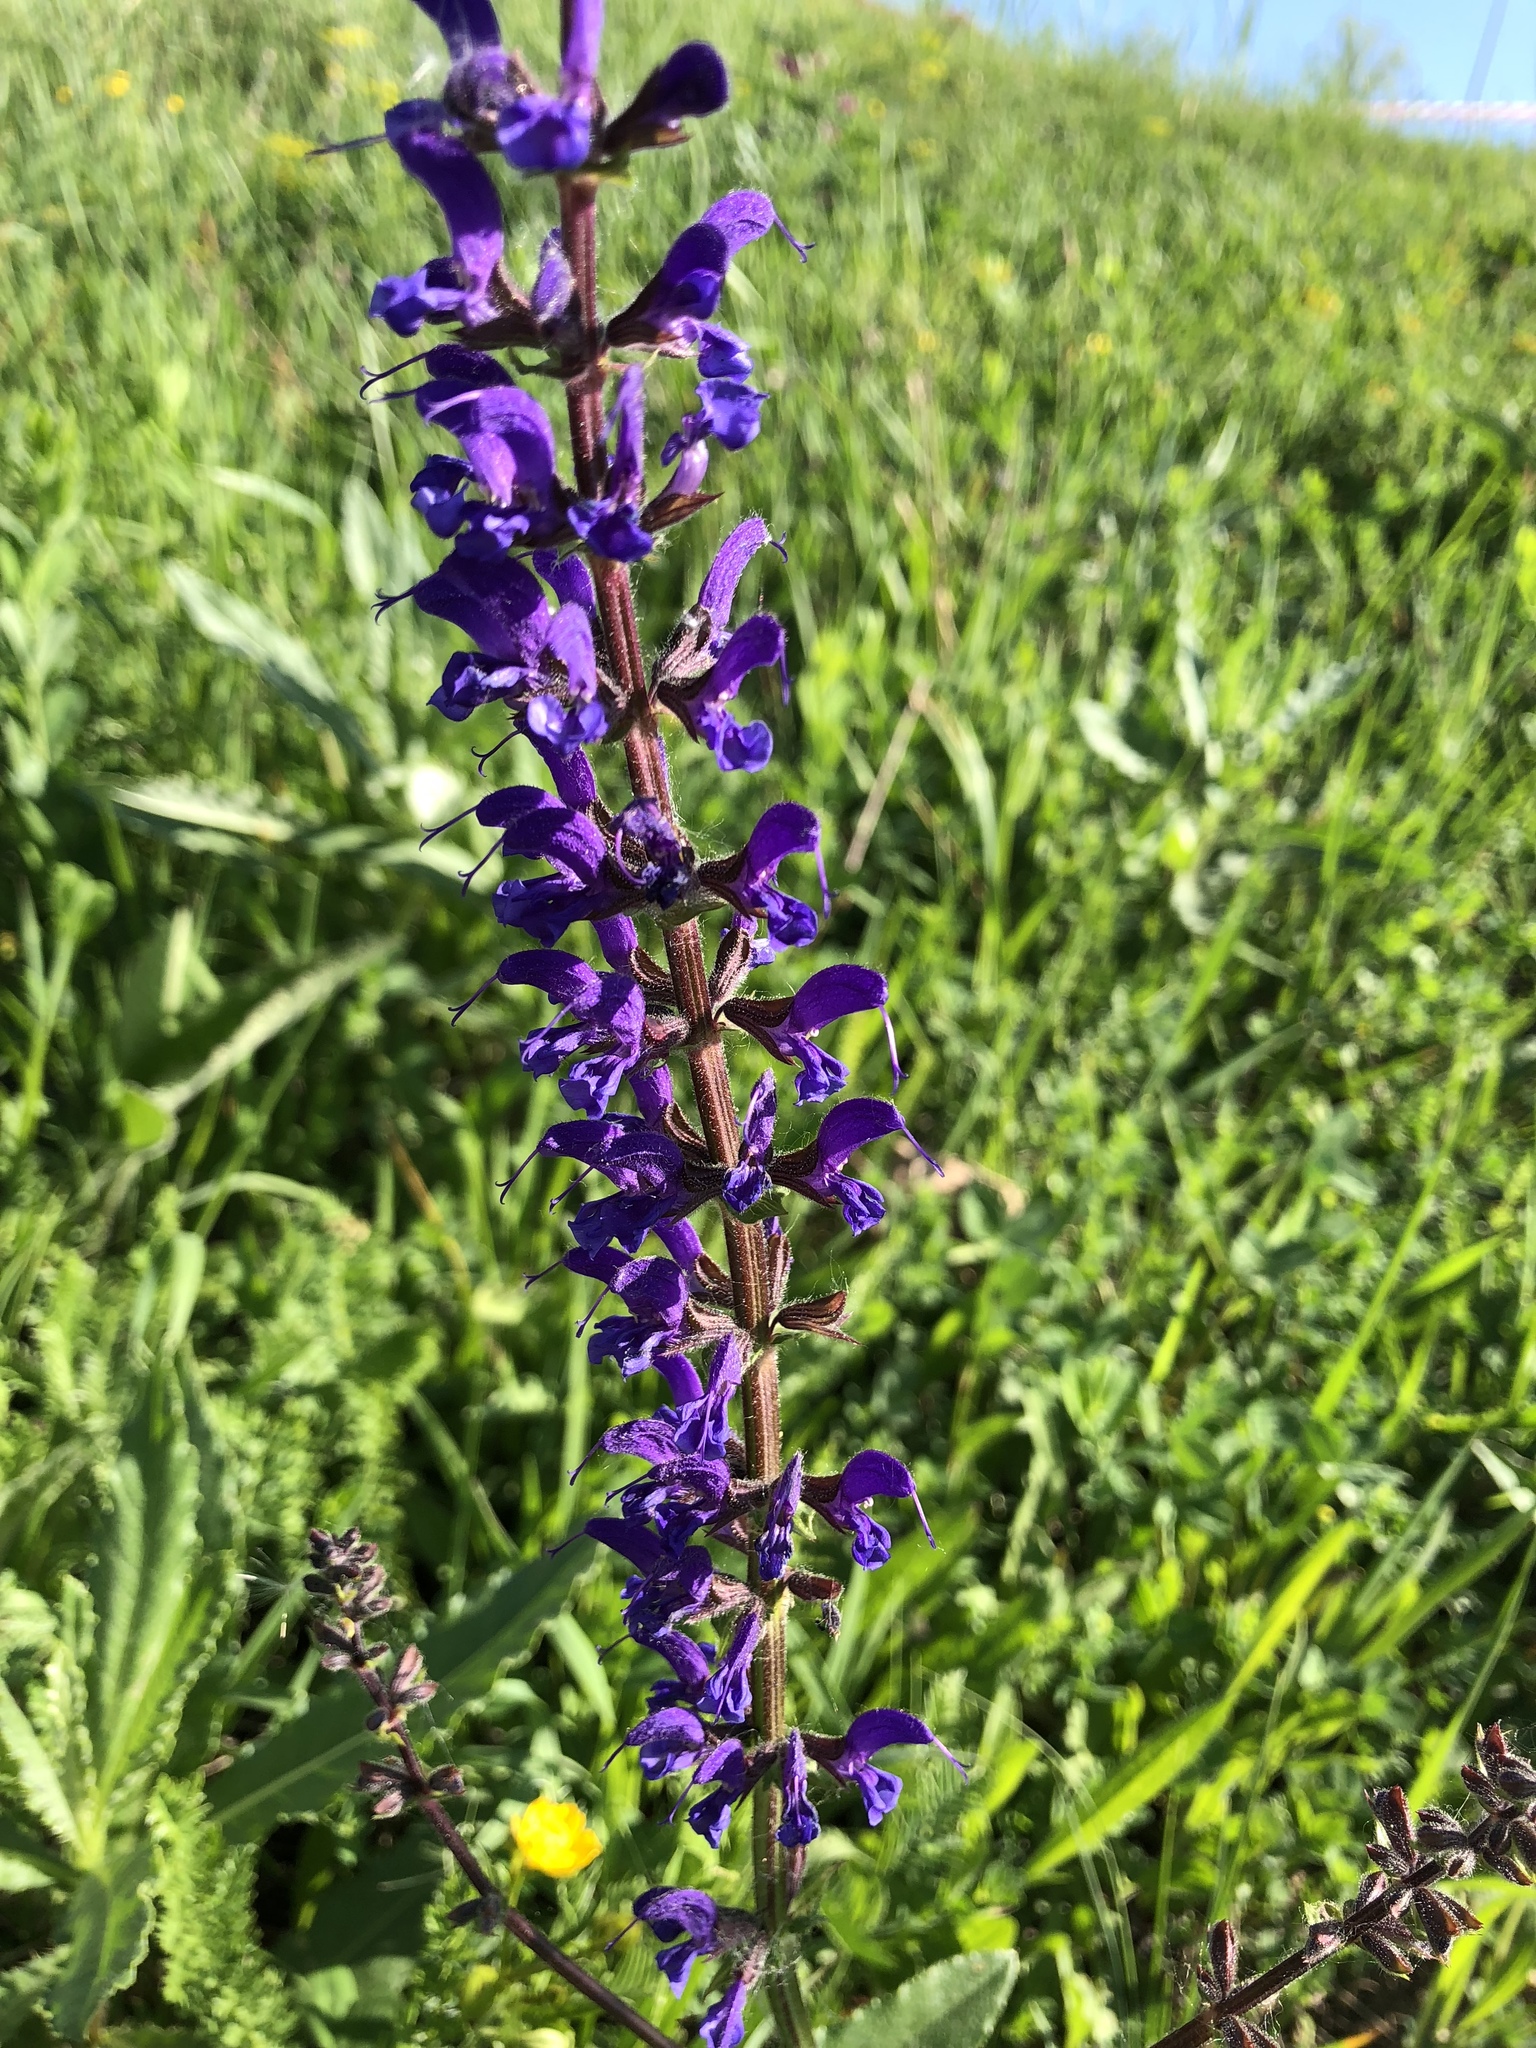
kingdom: Plantae
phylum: Tracheophyta
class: Magnoliopsida
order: Lamiales
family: Lamiaceae
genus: Salvia
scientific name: Salvia pratensis
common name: Meadow sage
